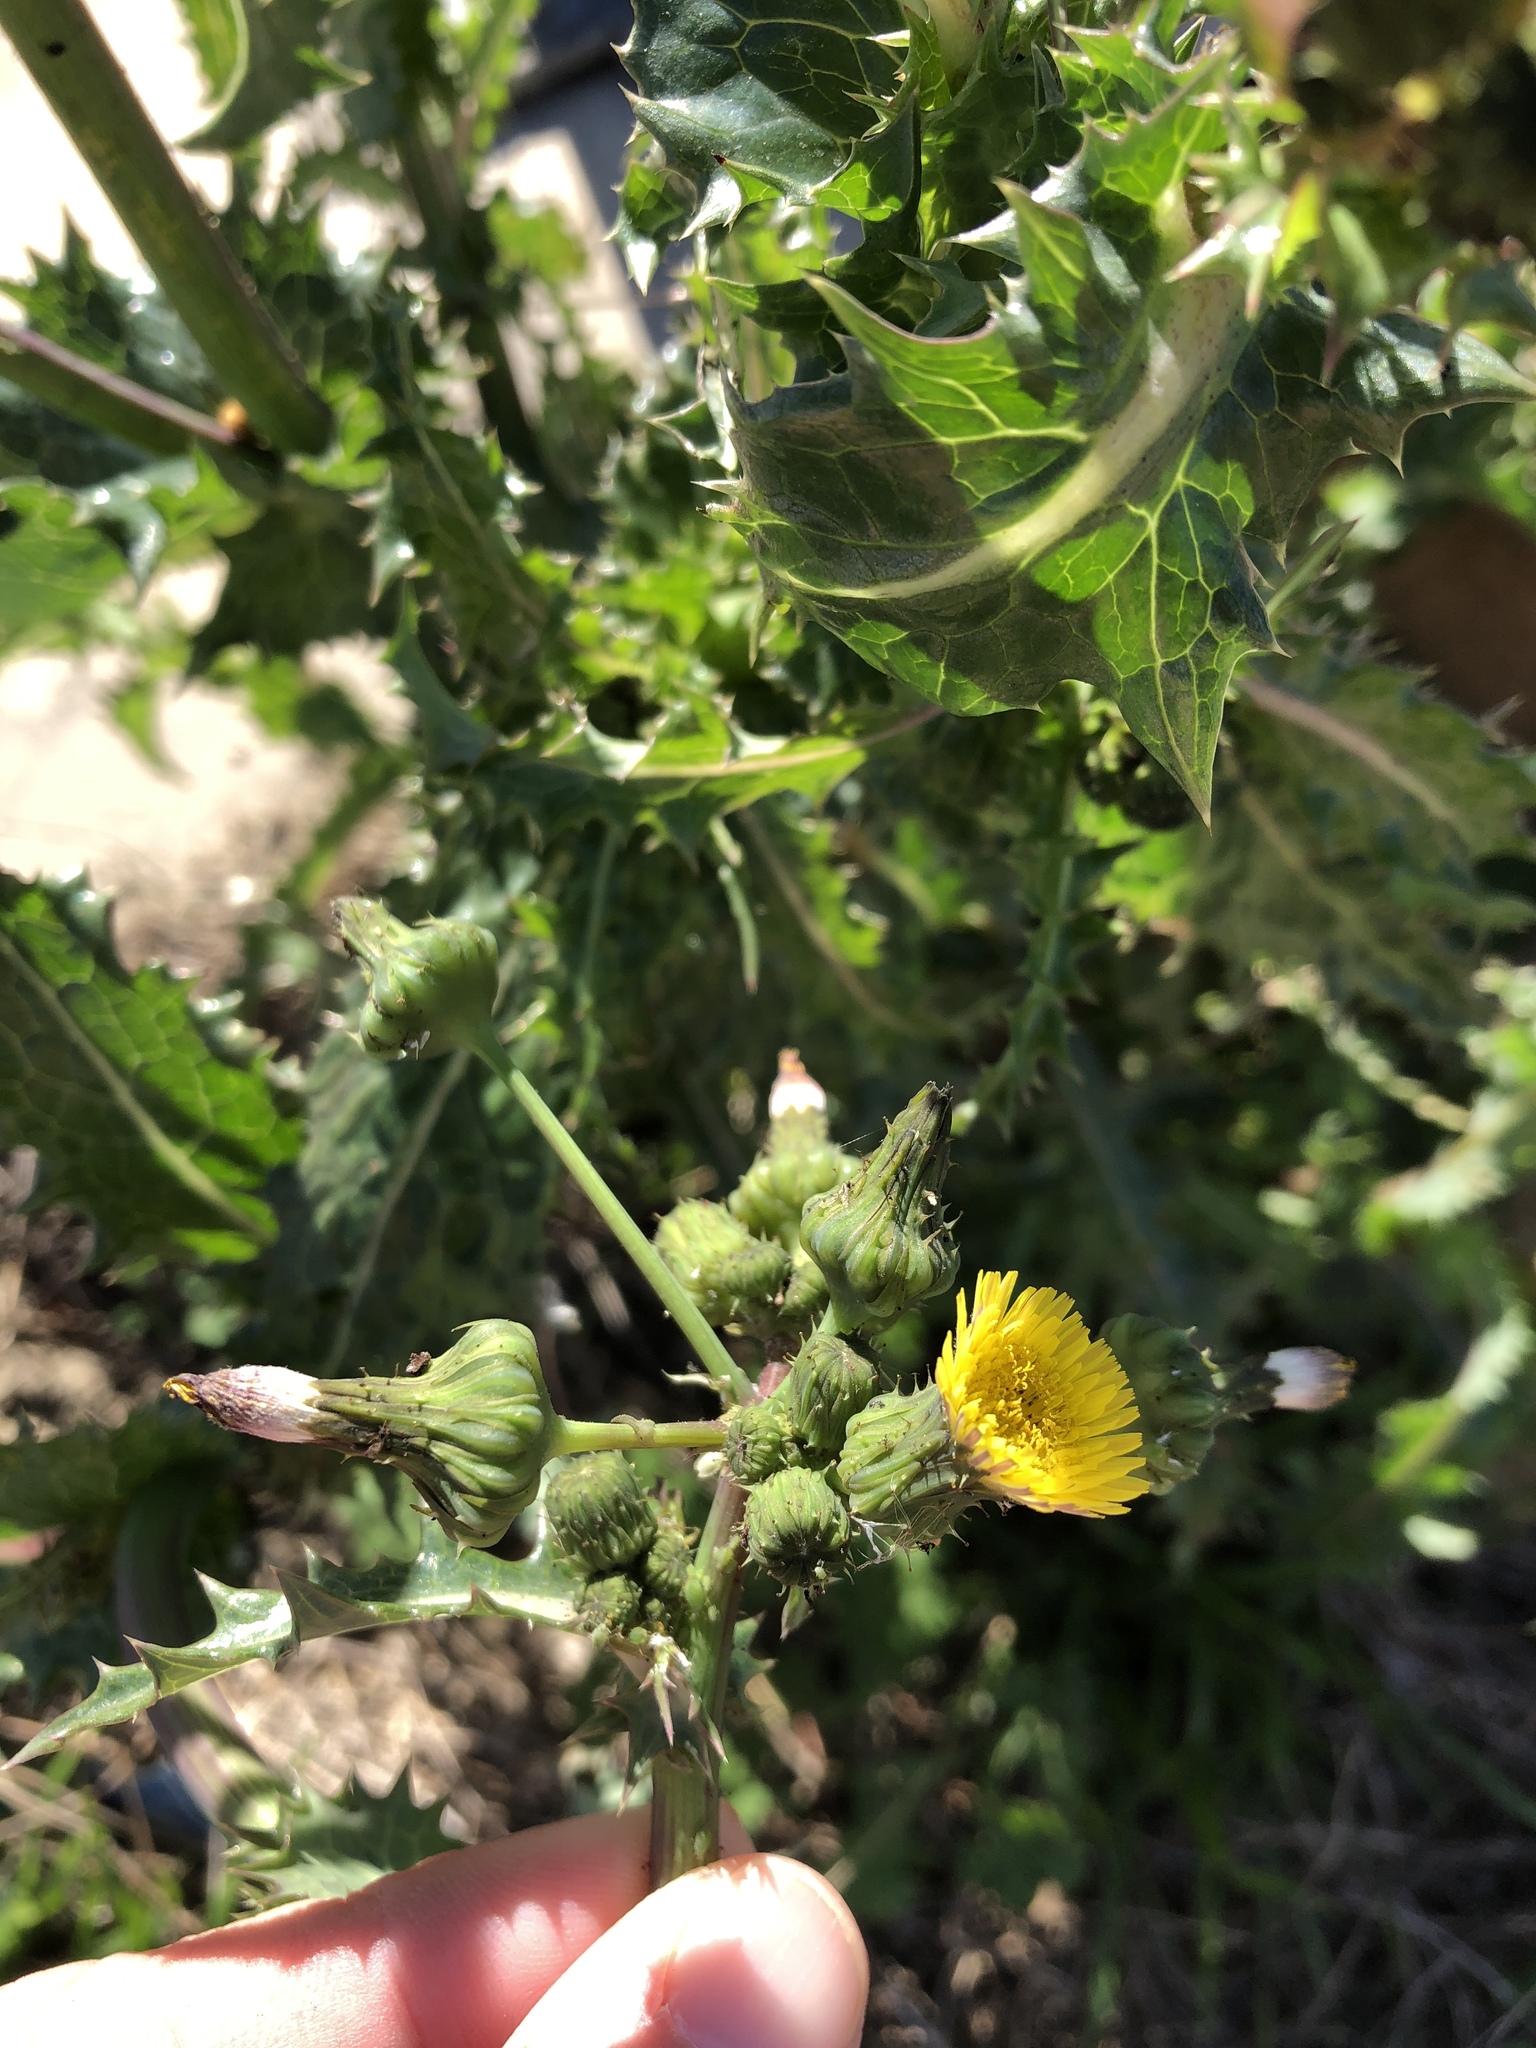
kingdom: Plantae
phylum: Tracheophyta
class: Magnoliopsida
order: Asterales
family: Asteraceae
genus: Sonchus
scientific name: Sonchus asper
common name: Prickly sow-thistle
